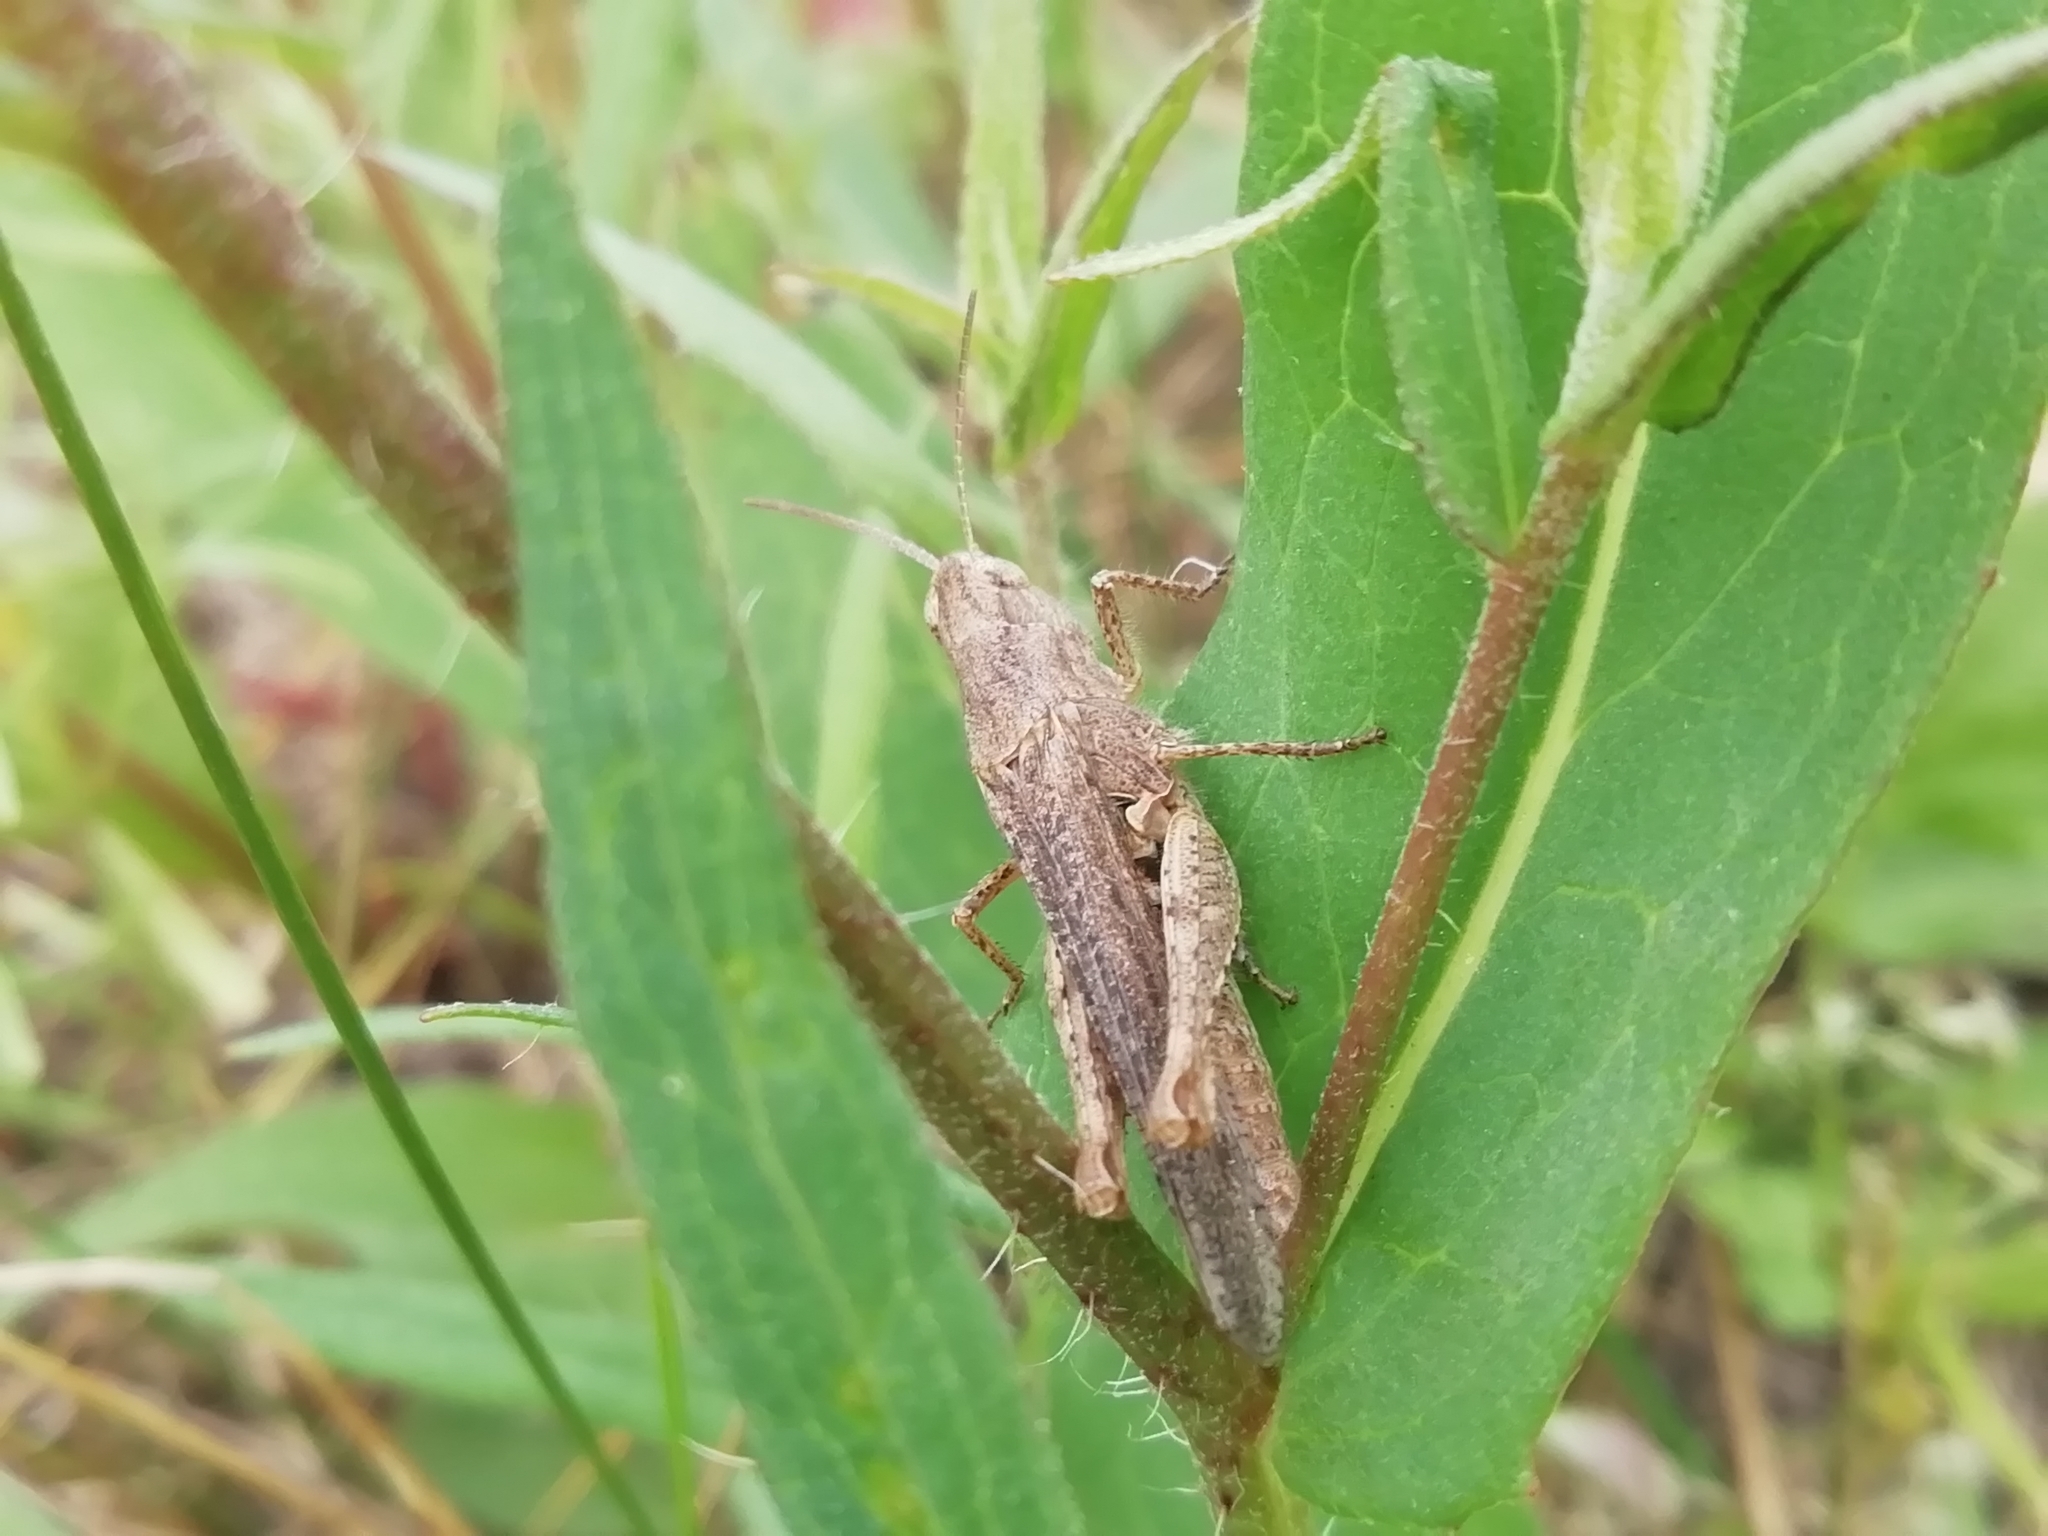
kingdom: Animalia
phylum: Arthropoda
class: Insecta
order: Orthoptera
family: Acrididae
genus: Chorthippus
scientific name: Chorthippus biguttulus
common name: Bow-winged grasshopper
